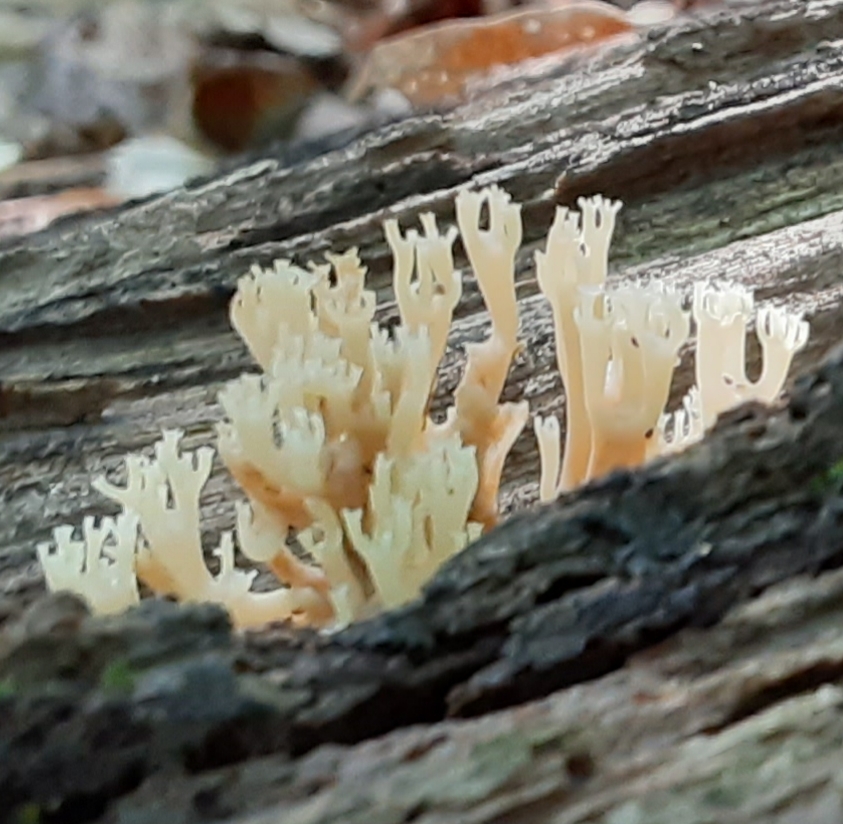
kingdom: Fungi
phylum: Basidiomycota
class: Agaricomycetes
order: Russulales
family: Auriscalpiaceae
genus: Artomyces
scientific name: Artomyces pyxidatus
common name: Crown-tipped coral fungus
